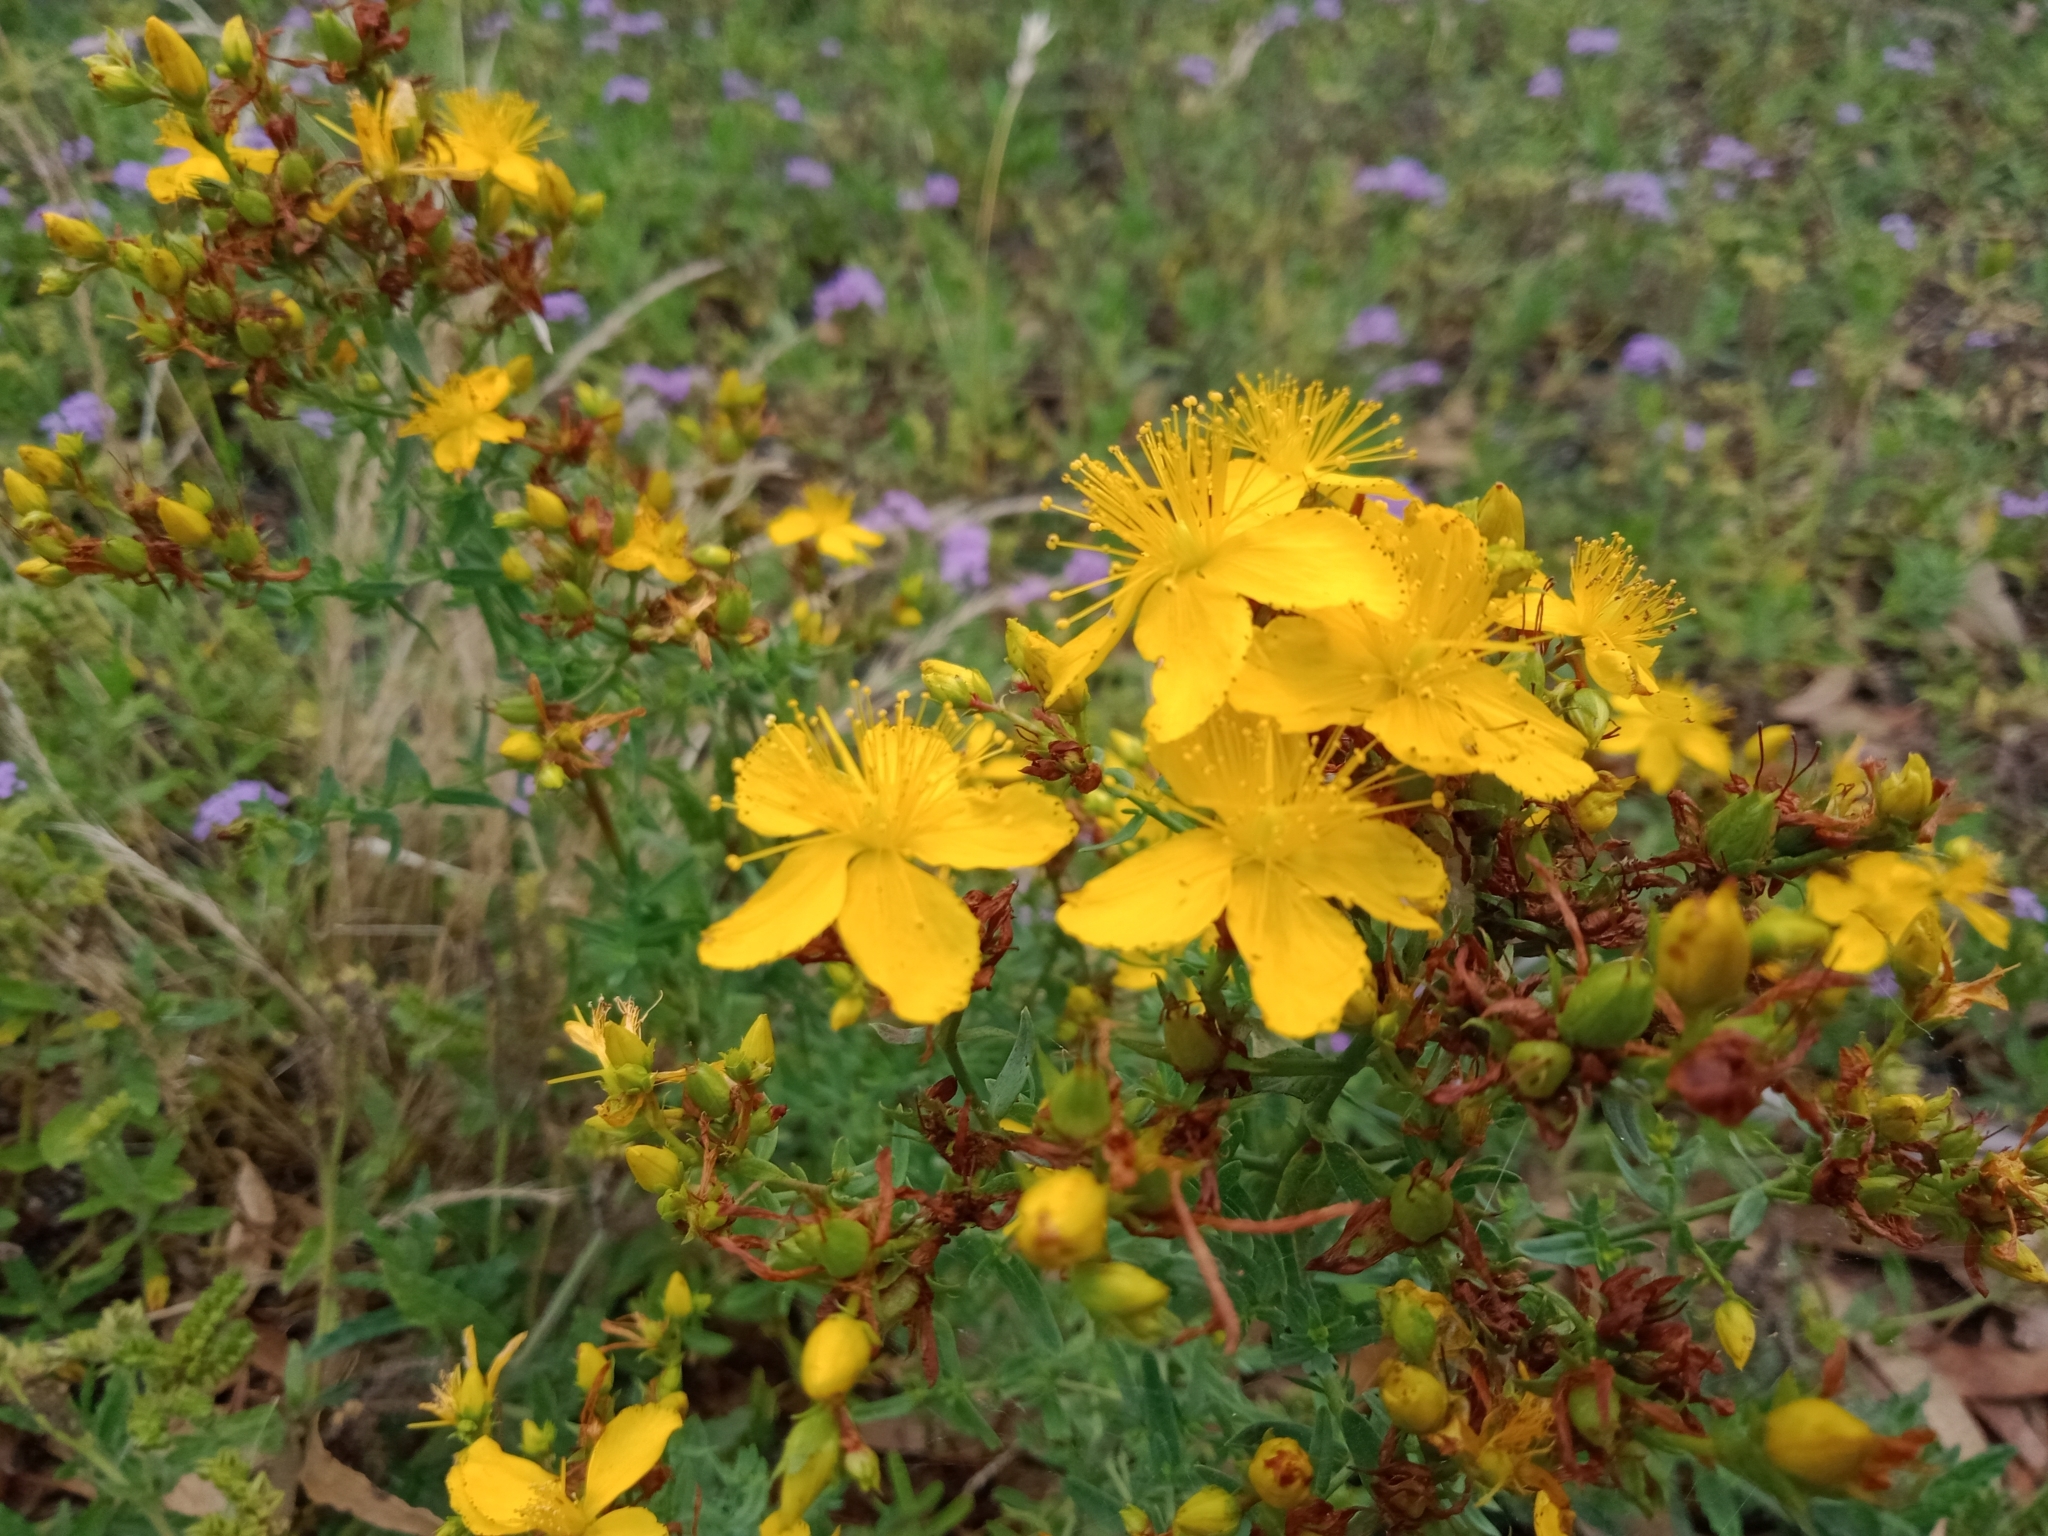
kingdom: Plantae
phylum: Tracheophyta
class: Magnoliopsida
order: Malpighiales
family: Hypericaceae
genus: Hypericum
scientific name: Hypericum perforatum
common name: Common st. johnswort
